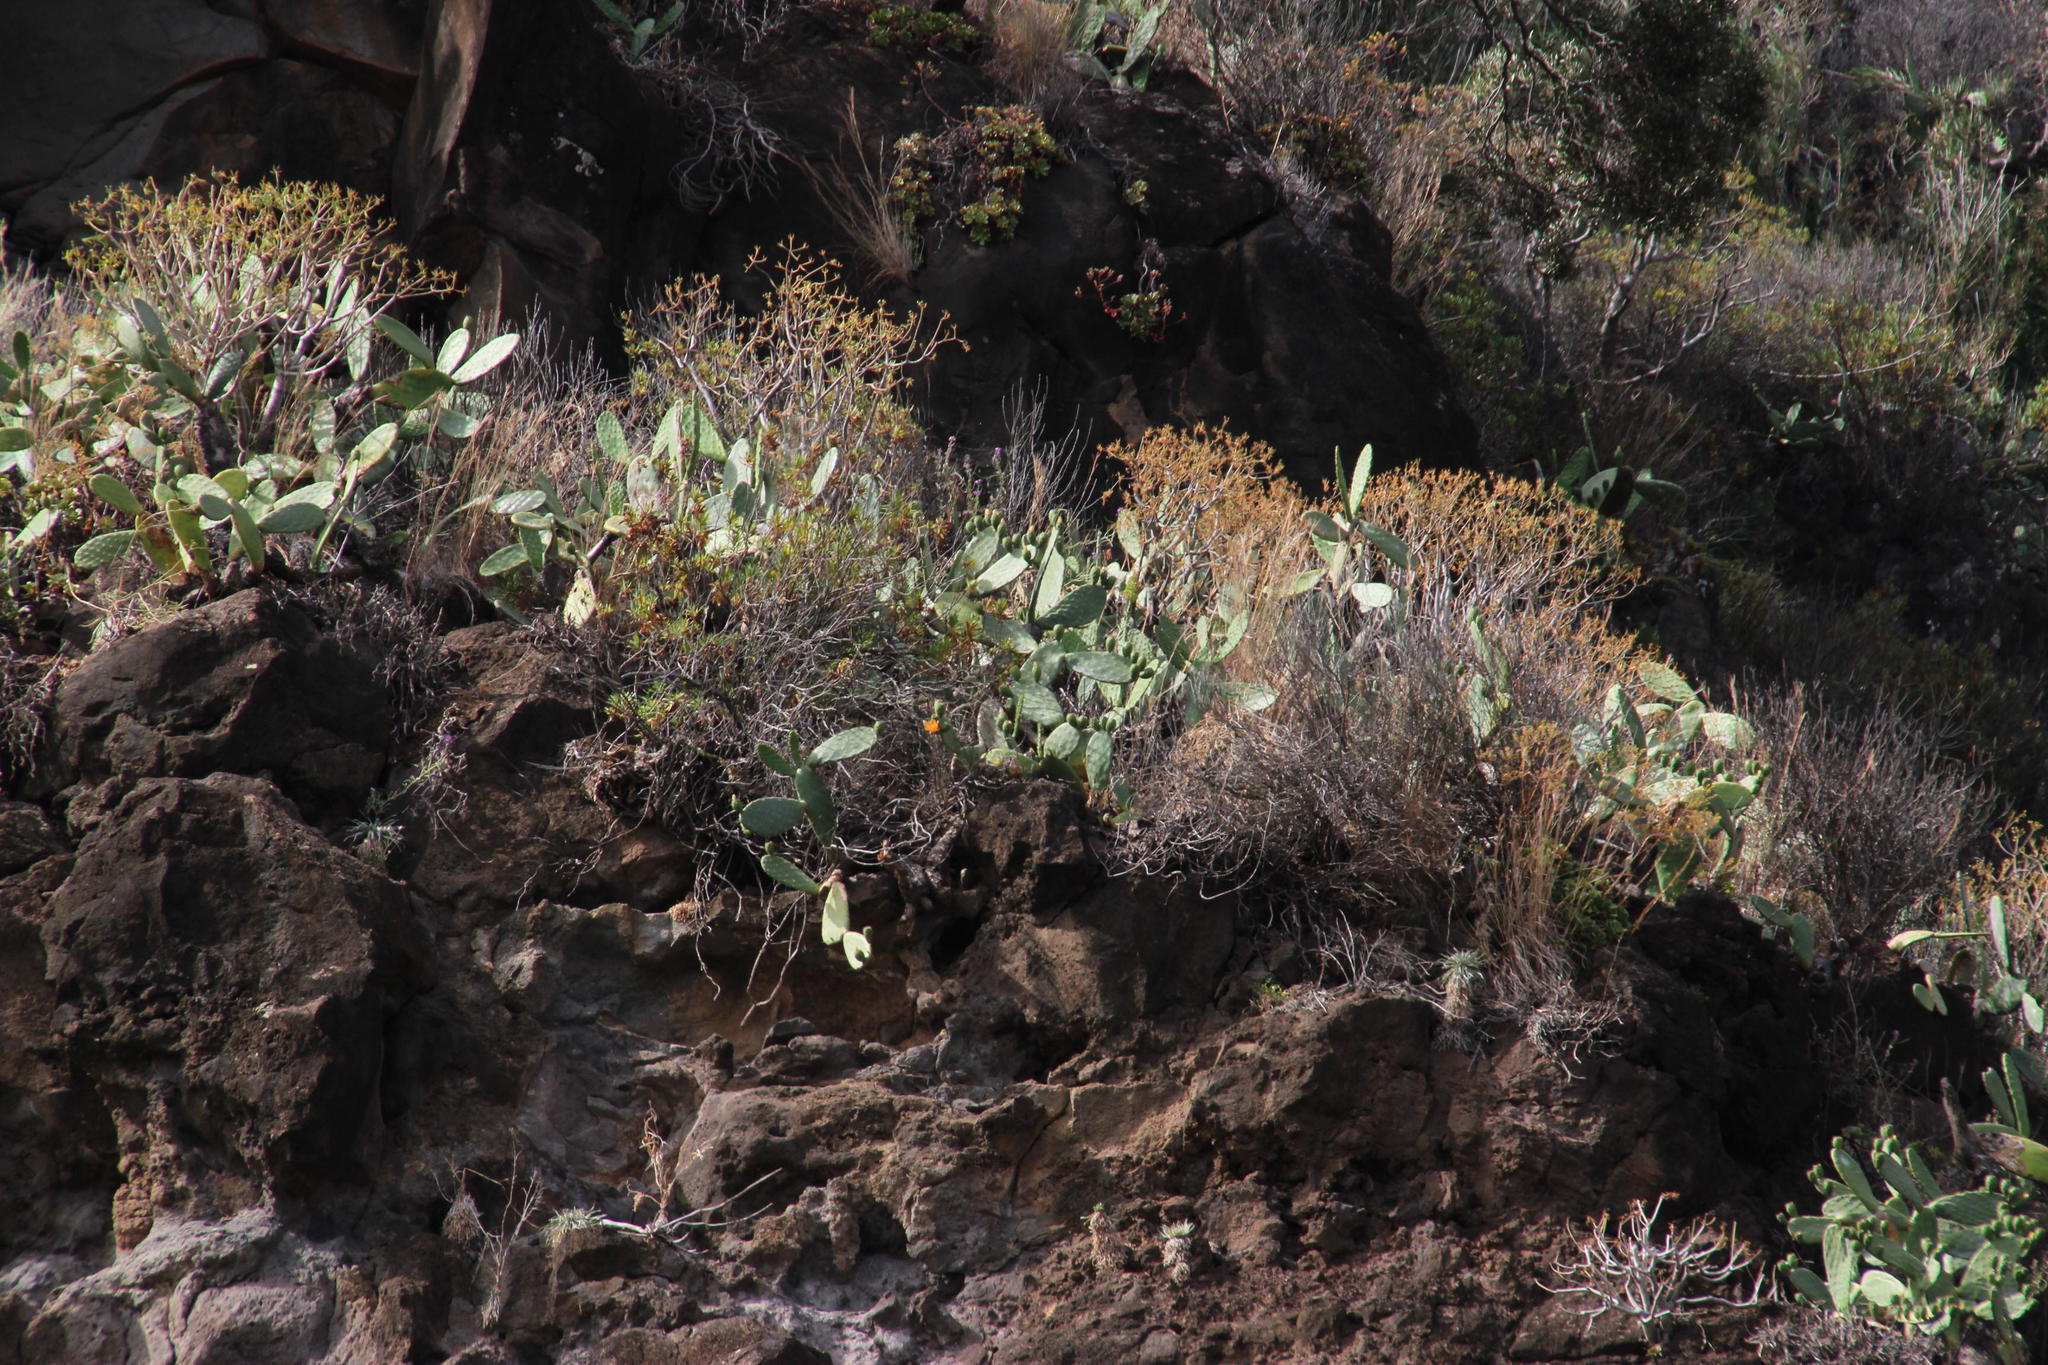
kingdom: Plantae
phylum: Tracheophyta
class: Magnoliopsida
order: Malpighiales
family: Euphorbiaceae
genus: Euphorbia
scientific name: Euphorbia piscatoria
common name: Fish-stunning spurge
